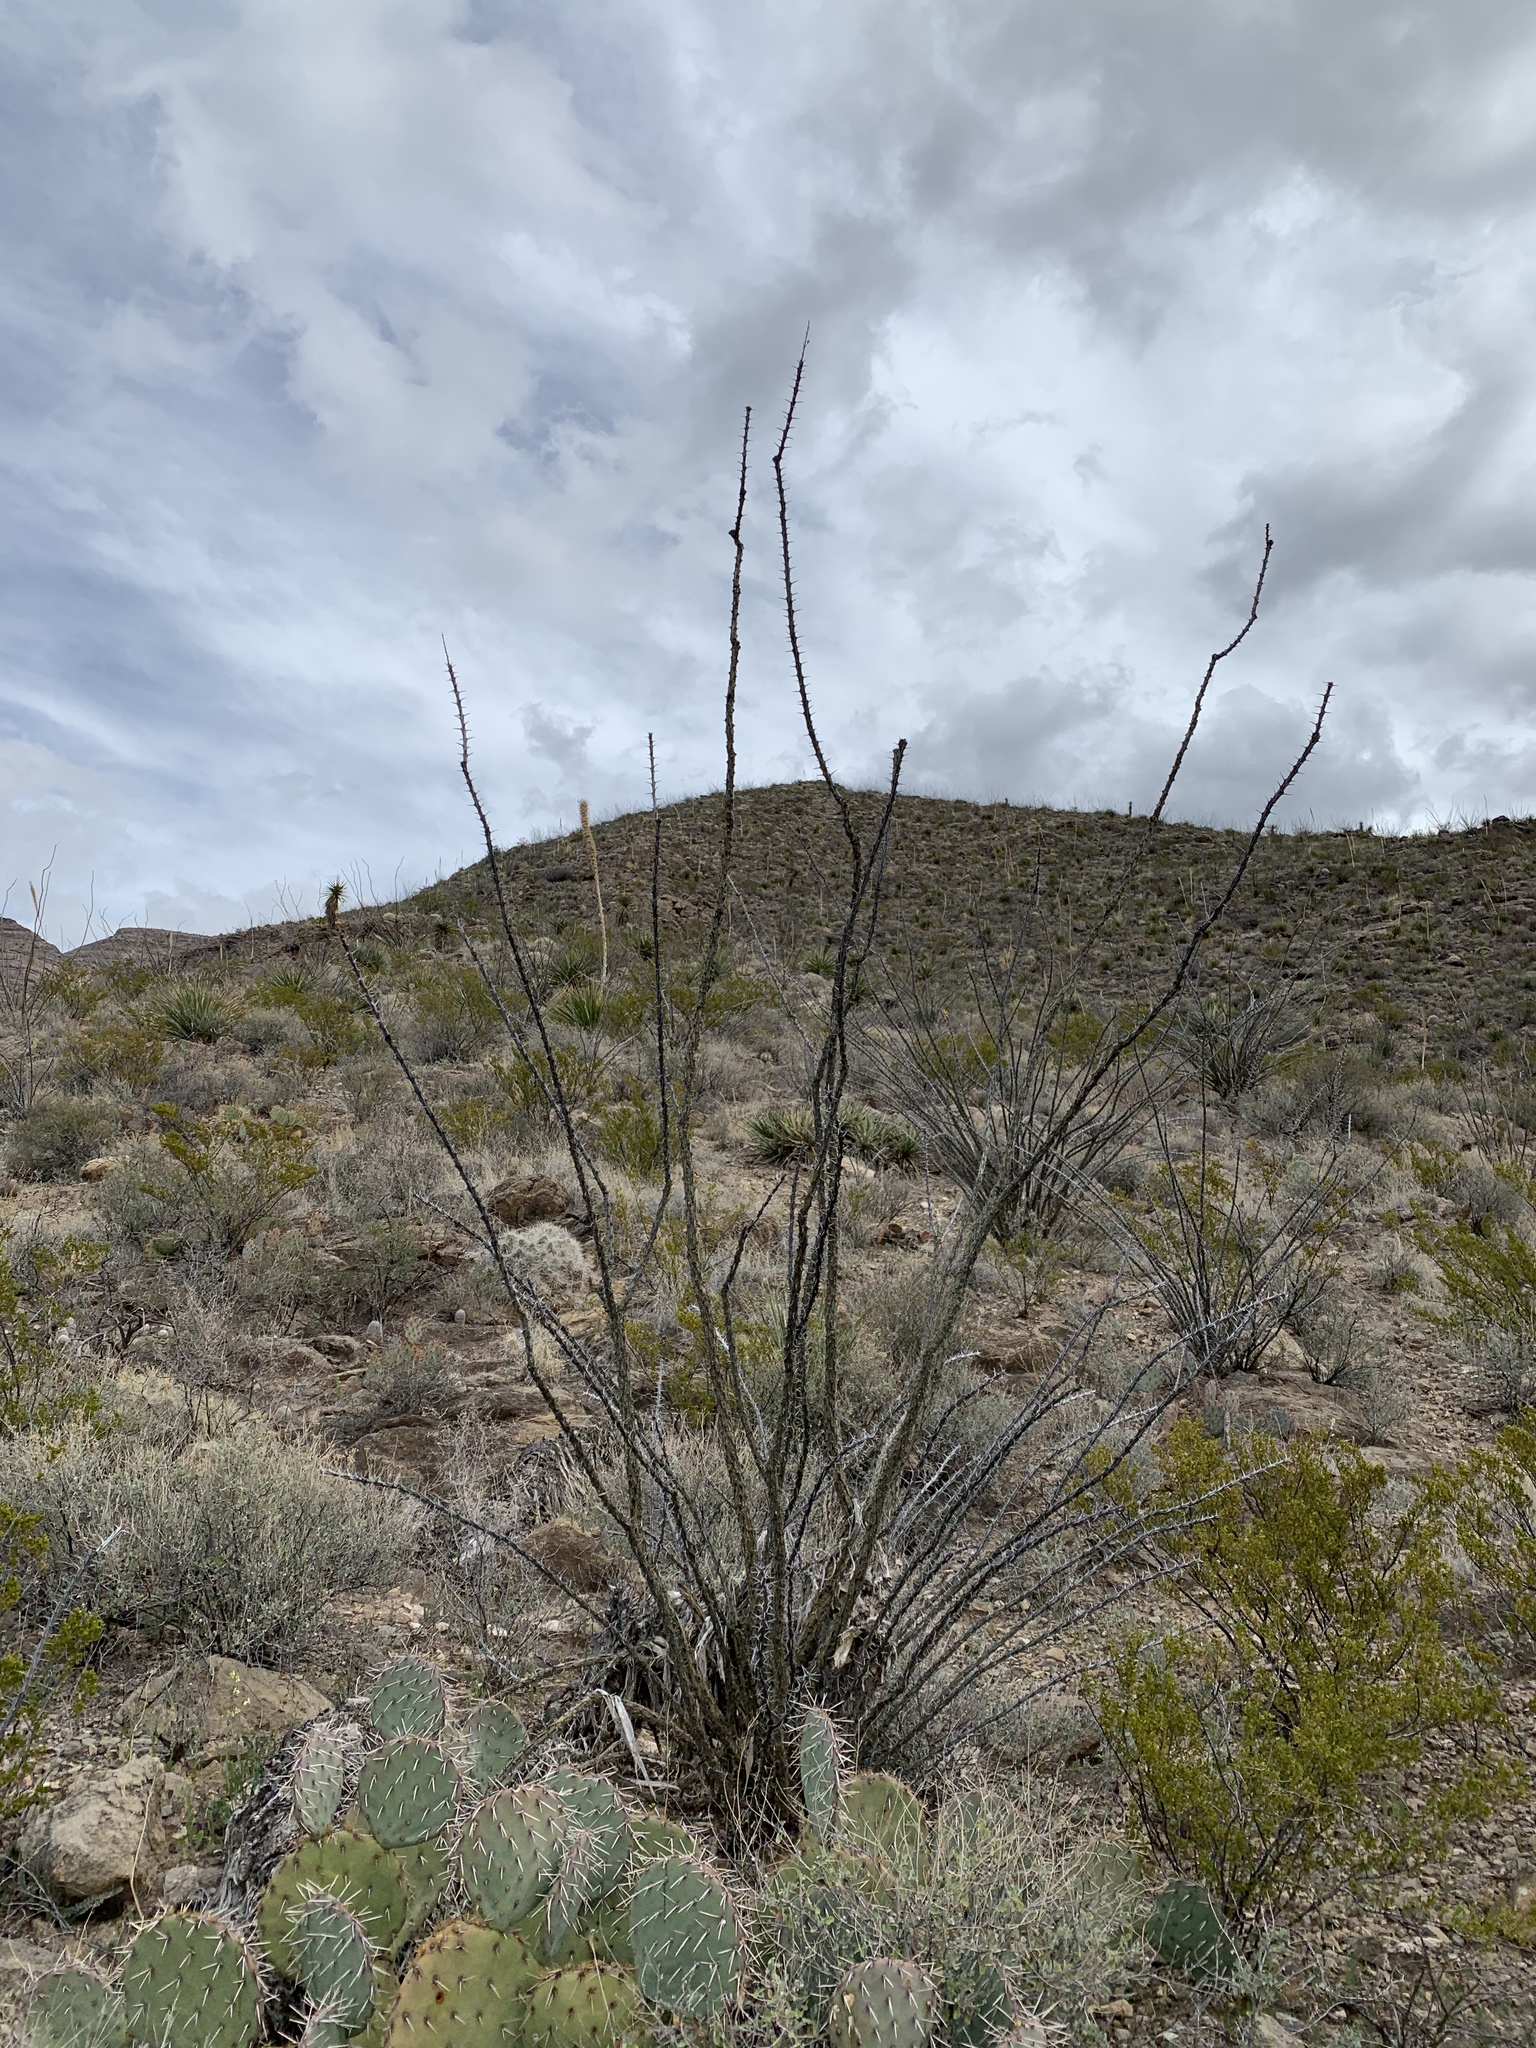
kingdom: Plantae
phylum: Tracheophyta
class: Magnoliopsida
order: Ericales
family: Fouquieriaceae
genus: Fouquieria
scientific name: Fouquieria splendens
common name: Vine-cactus
